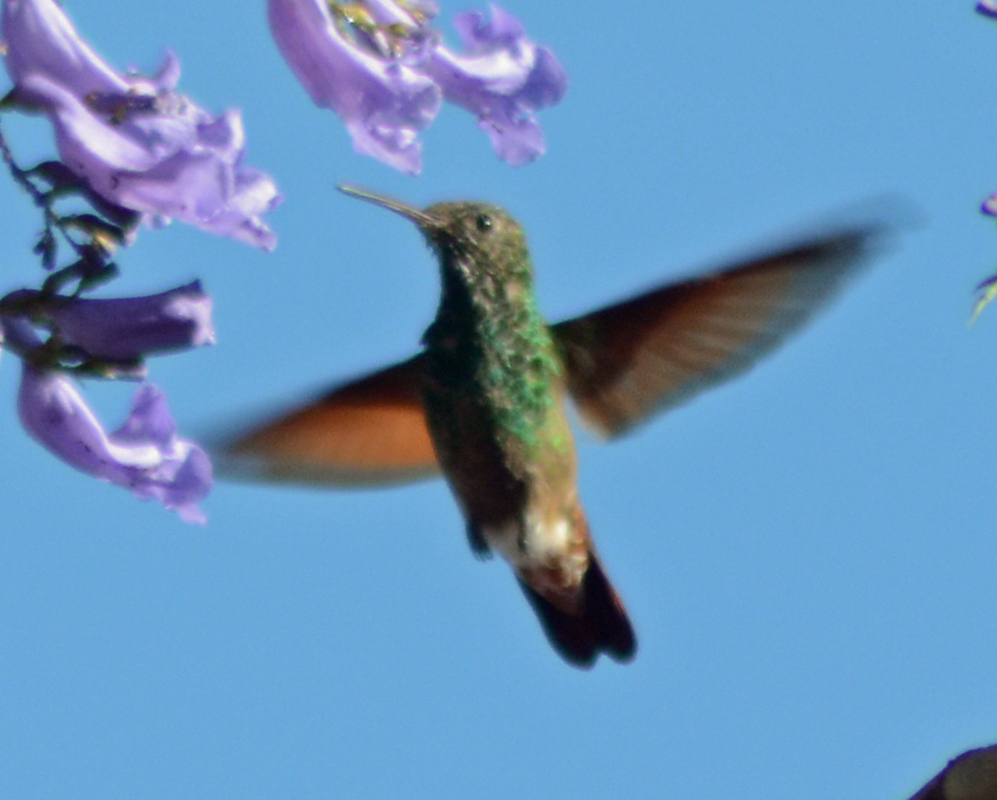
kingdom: Animalia
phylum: Chordata
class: Aves
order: Apodiformes
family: Trochilidae
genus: Saucerottia
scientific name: Saucerottia beryllina
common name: Berylline hummingbird
